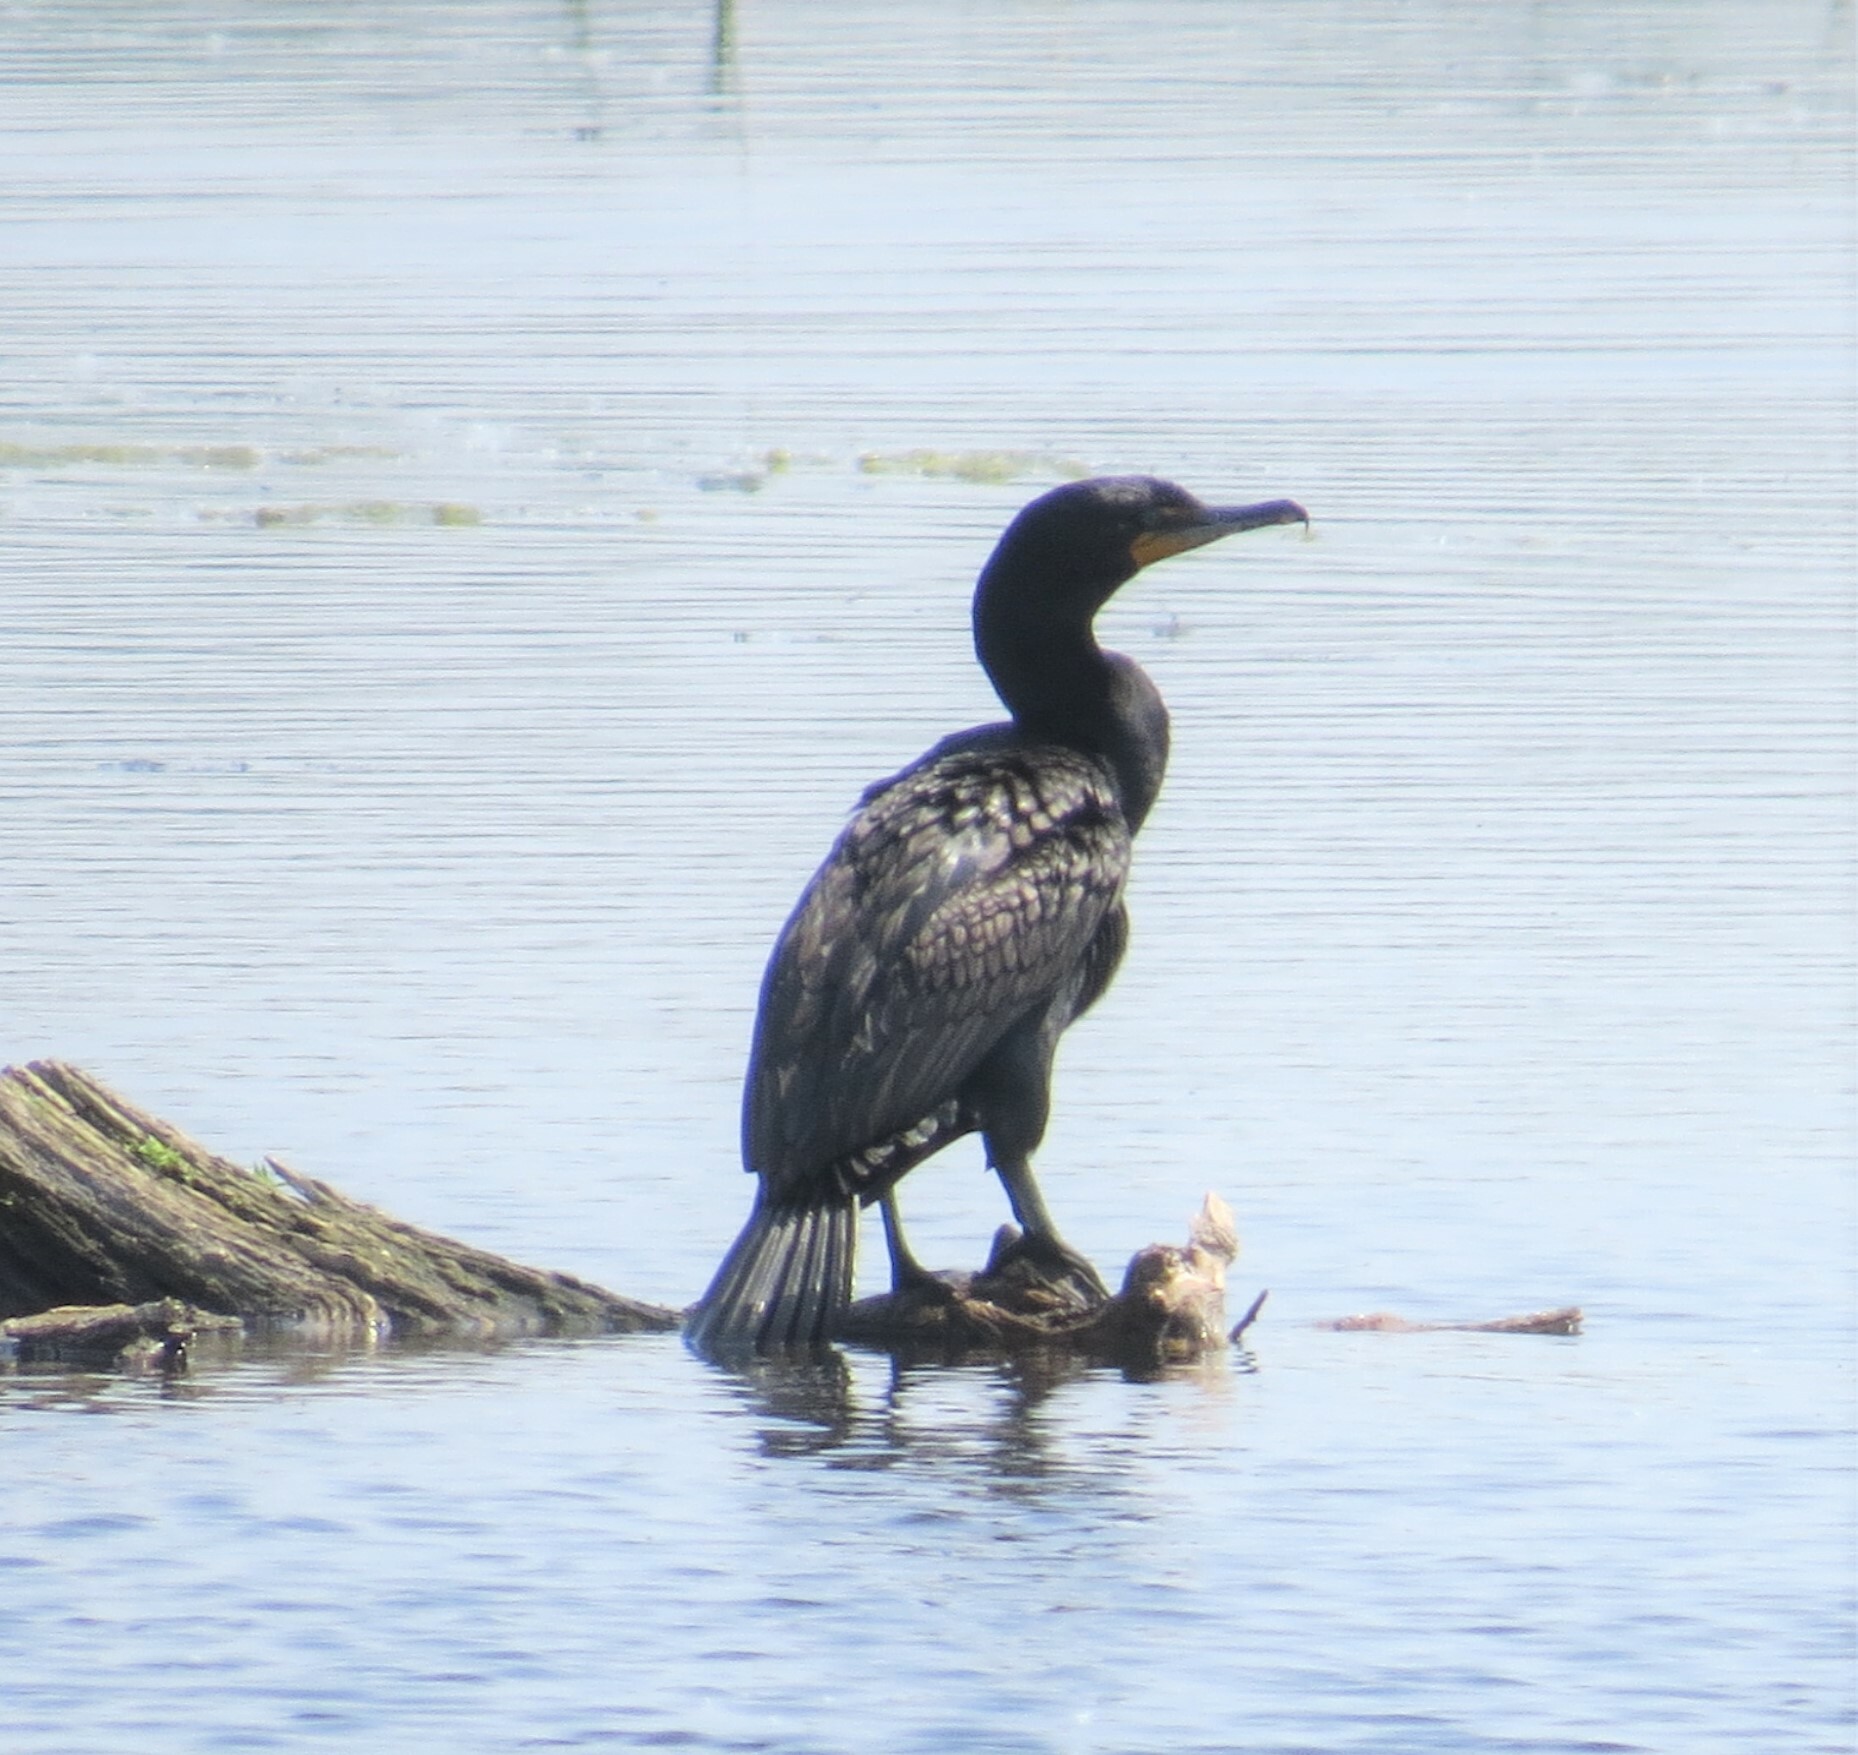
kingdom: Animalia
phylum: Chordata
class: Aves
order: Suliformes
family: Phalacrocoracidae
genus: Phalacrocorax
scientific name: Phalacrocorax auritus
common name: Double-crested cormorant
